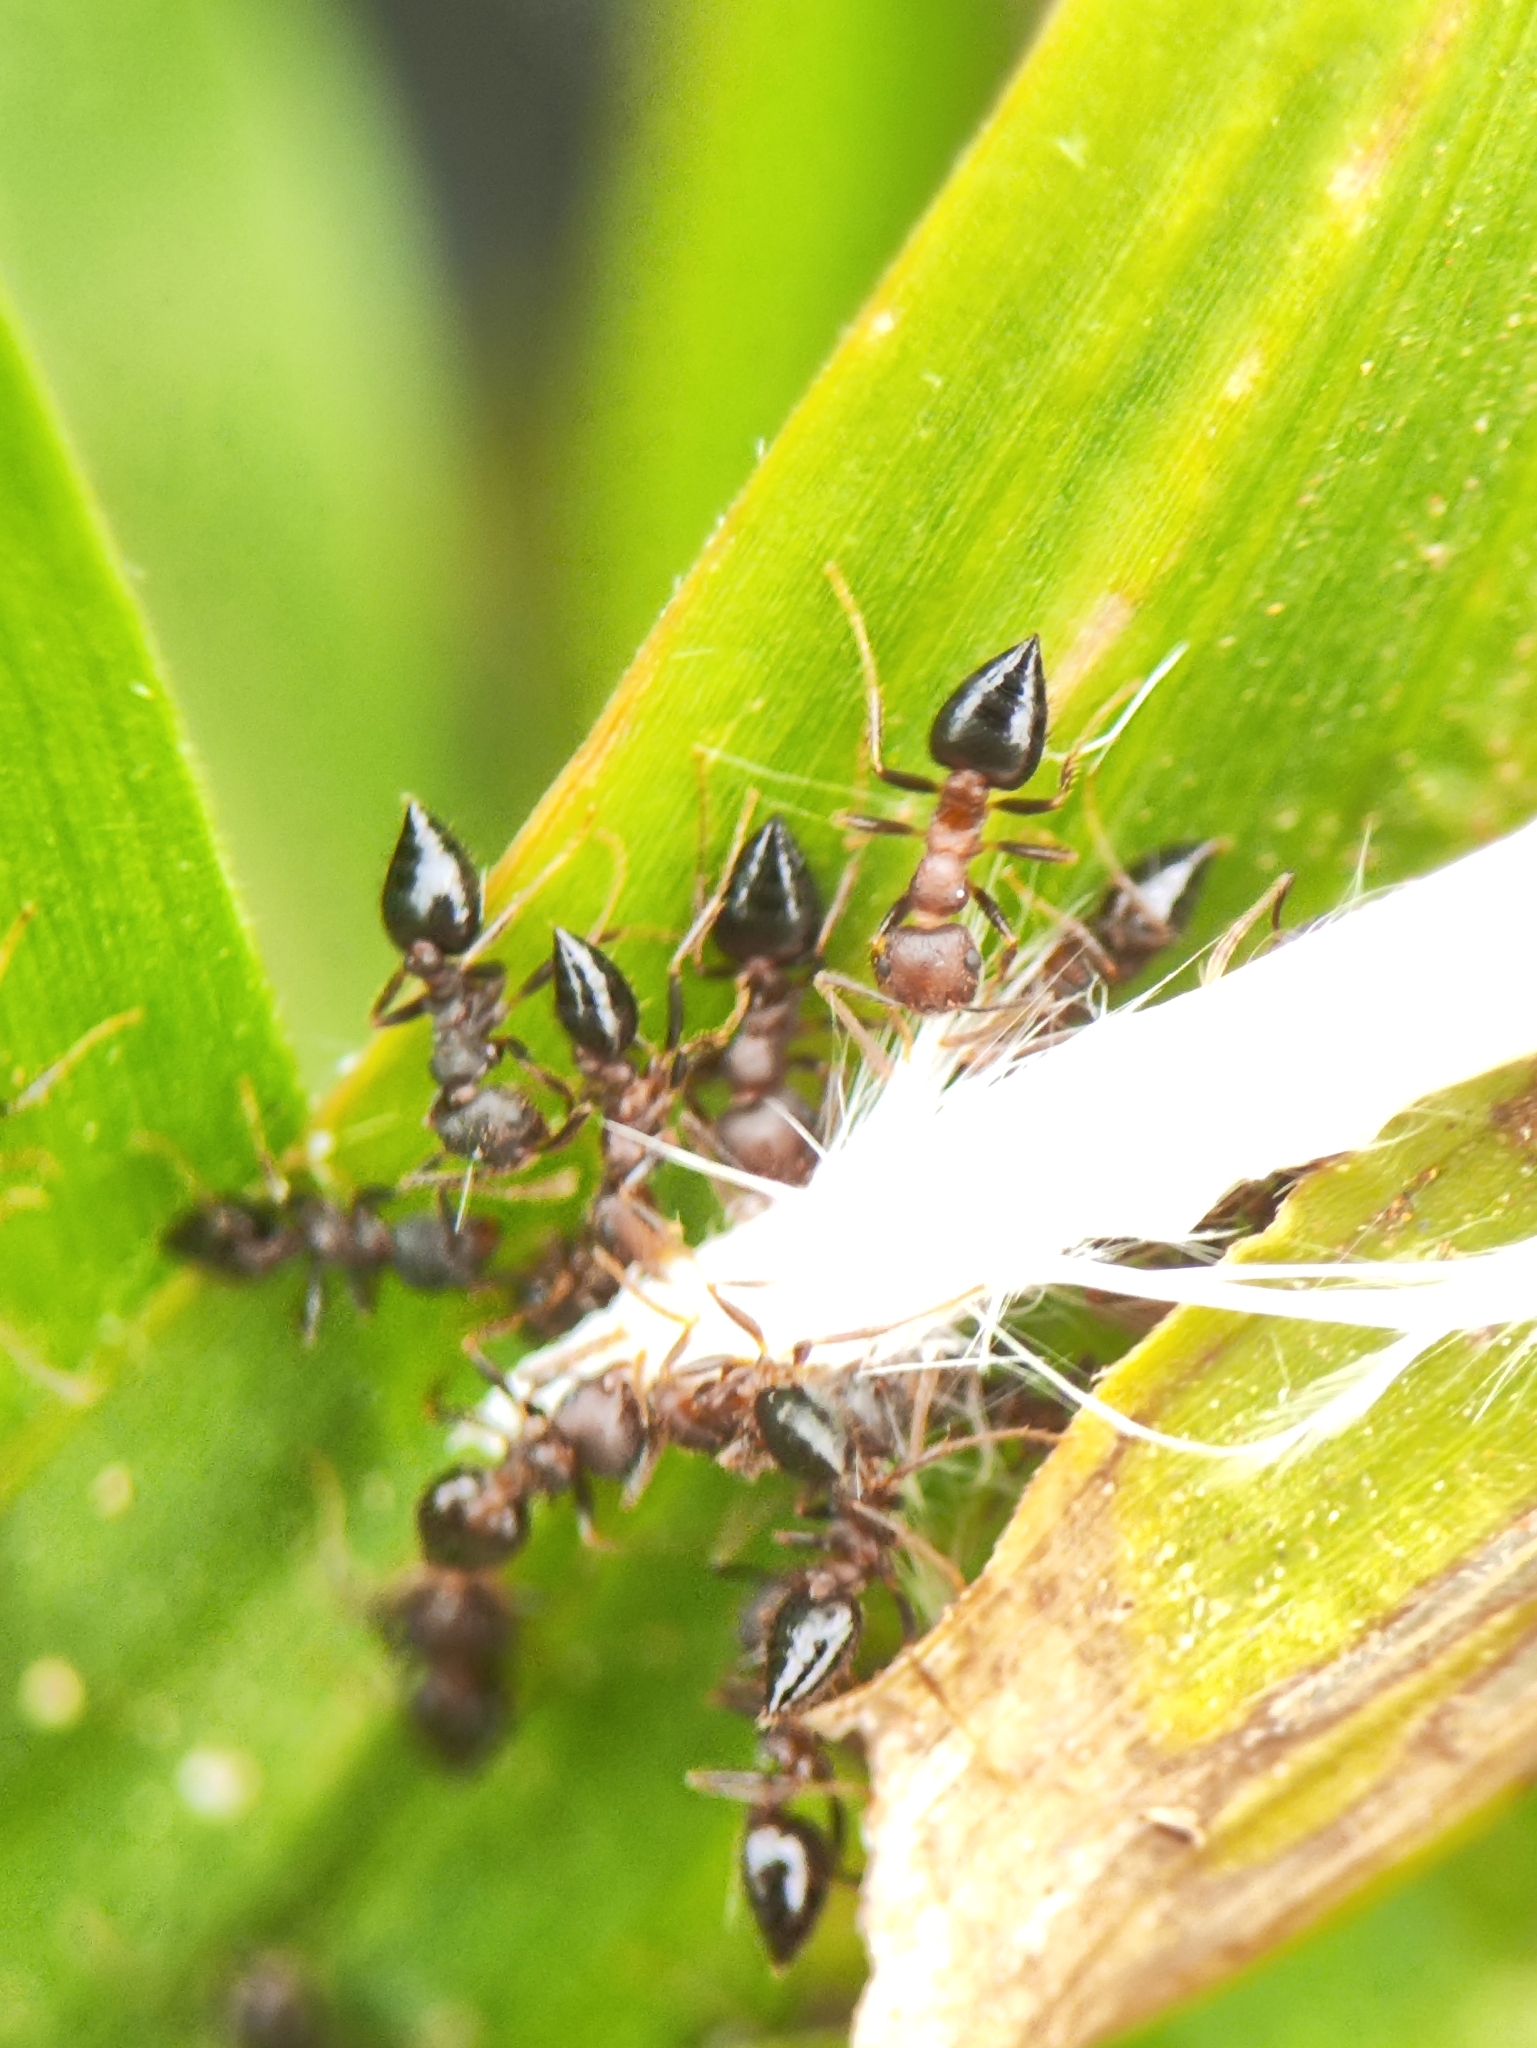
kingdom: Animalia
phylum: Arthropoda
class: Insecta
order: Hymenoptera
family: Formicidae
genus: Crematogaster
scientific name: Crematogaster rothneyi
